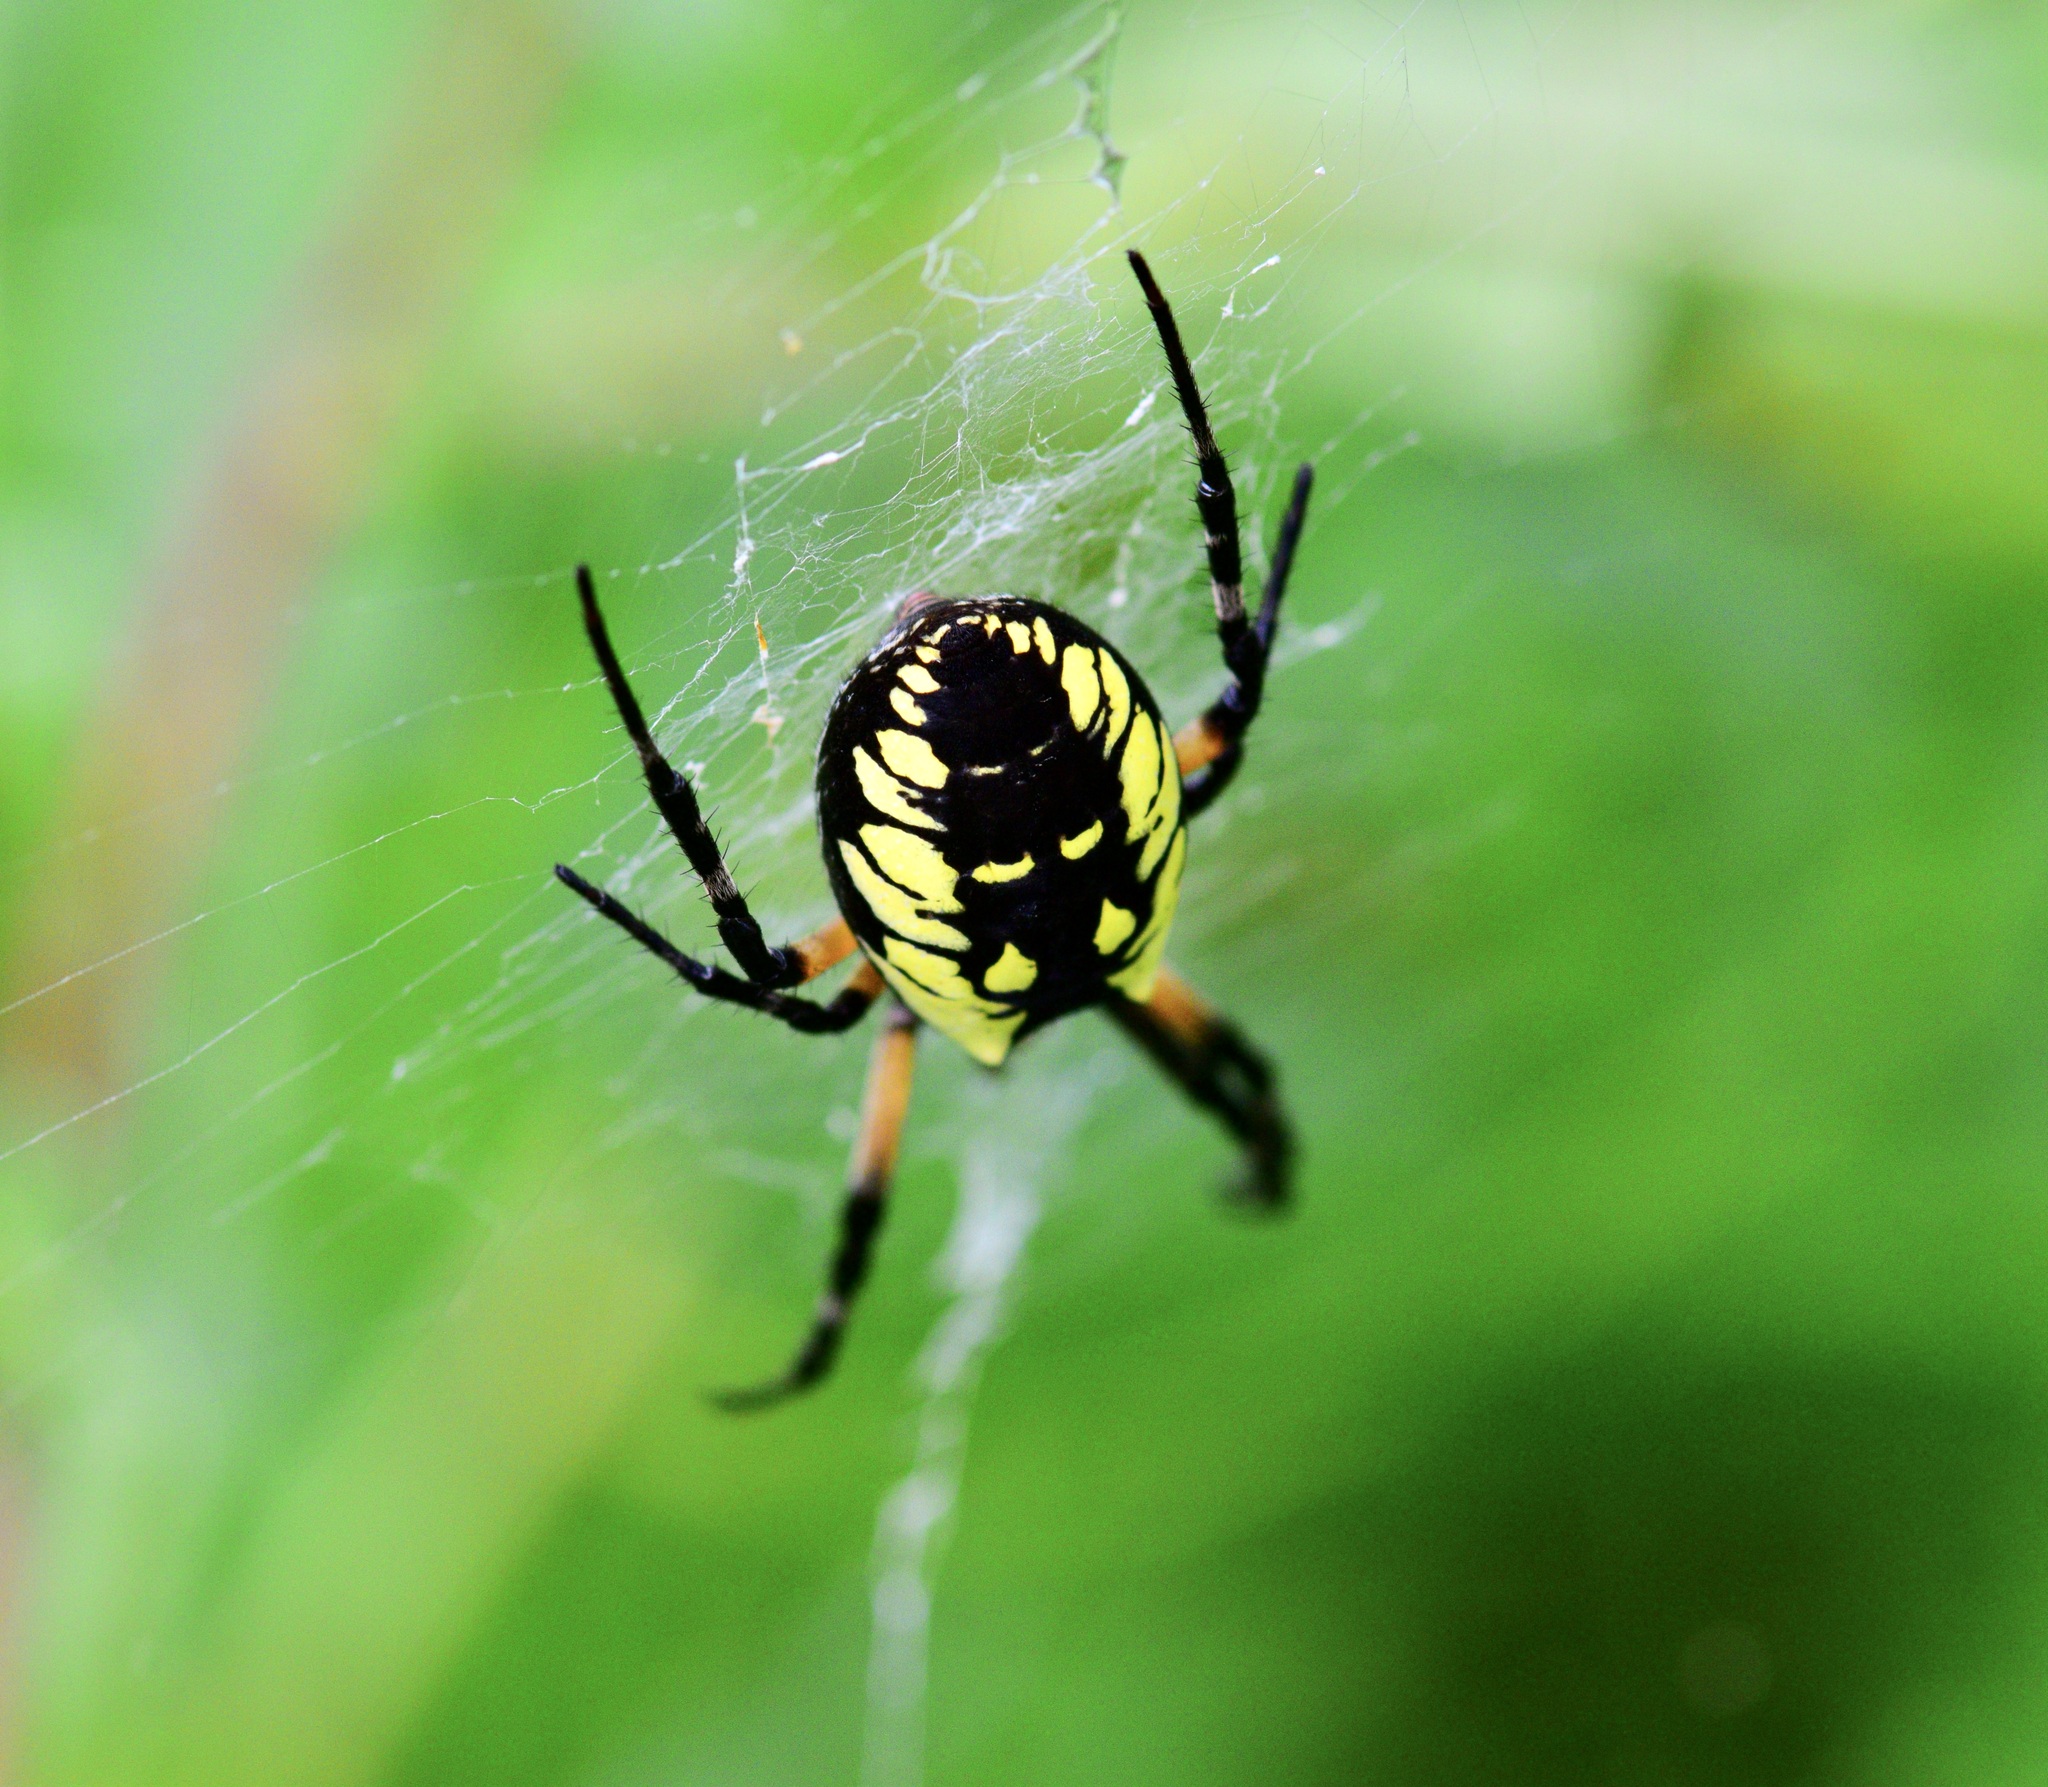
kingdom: Animalia
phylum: Arthropoda
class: Arachnida
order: Araneae
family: Araneidae
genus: Argiope
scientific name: Argiope aurantia
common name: Orb weavers
